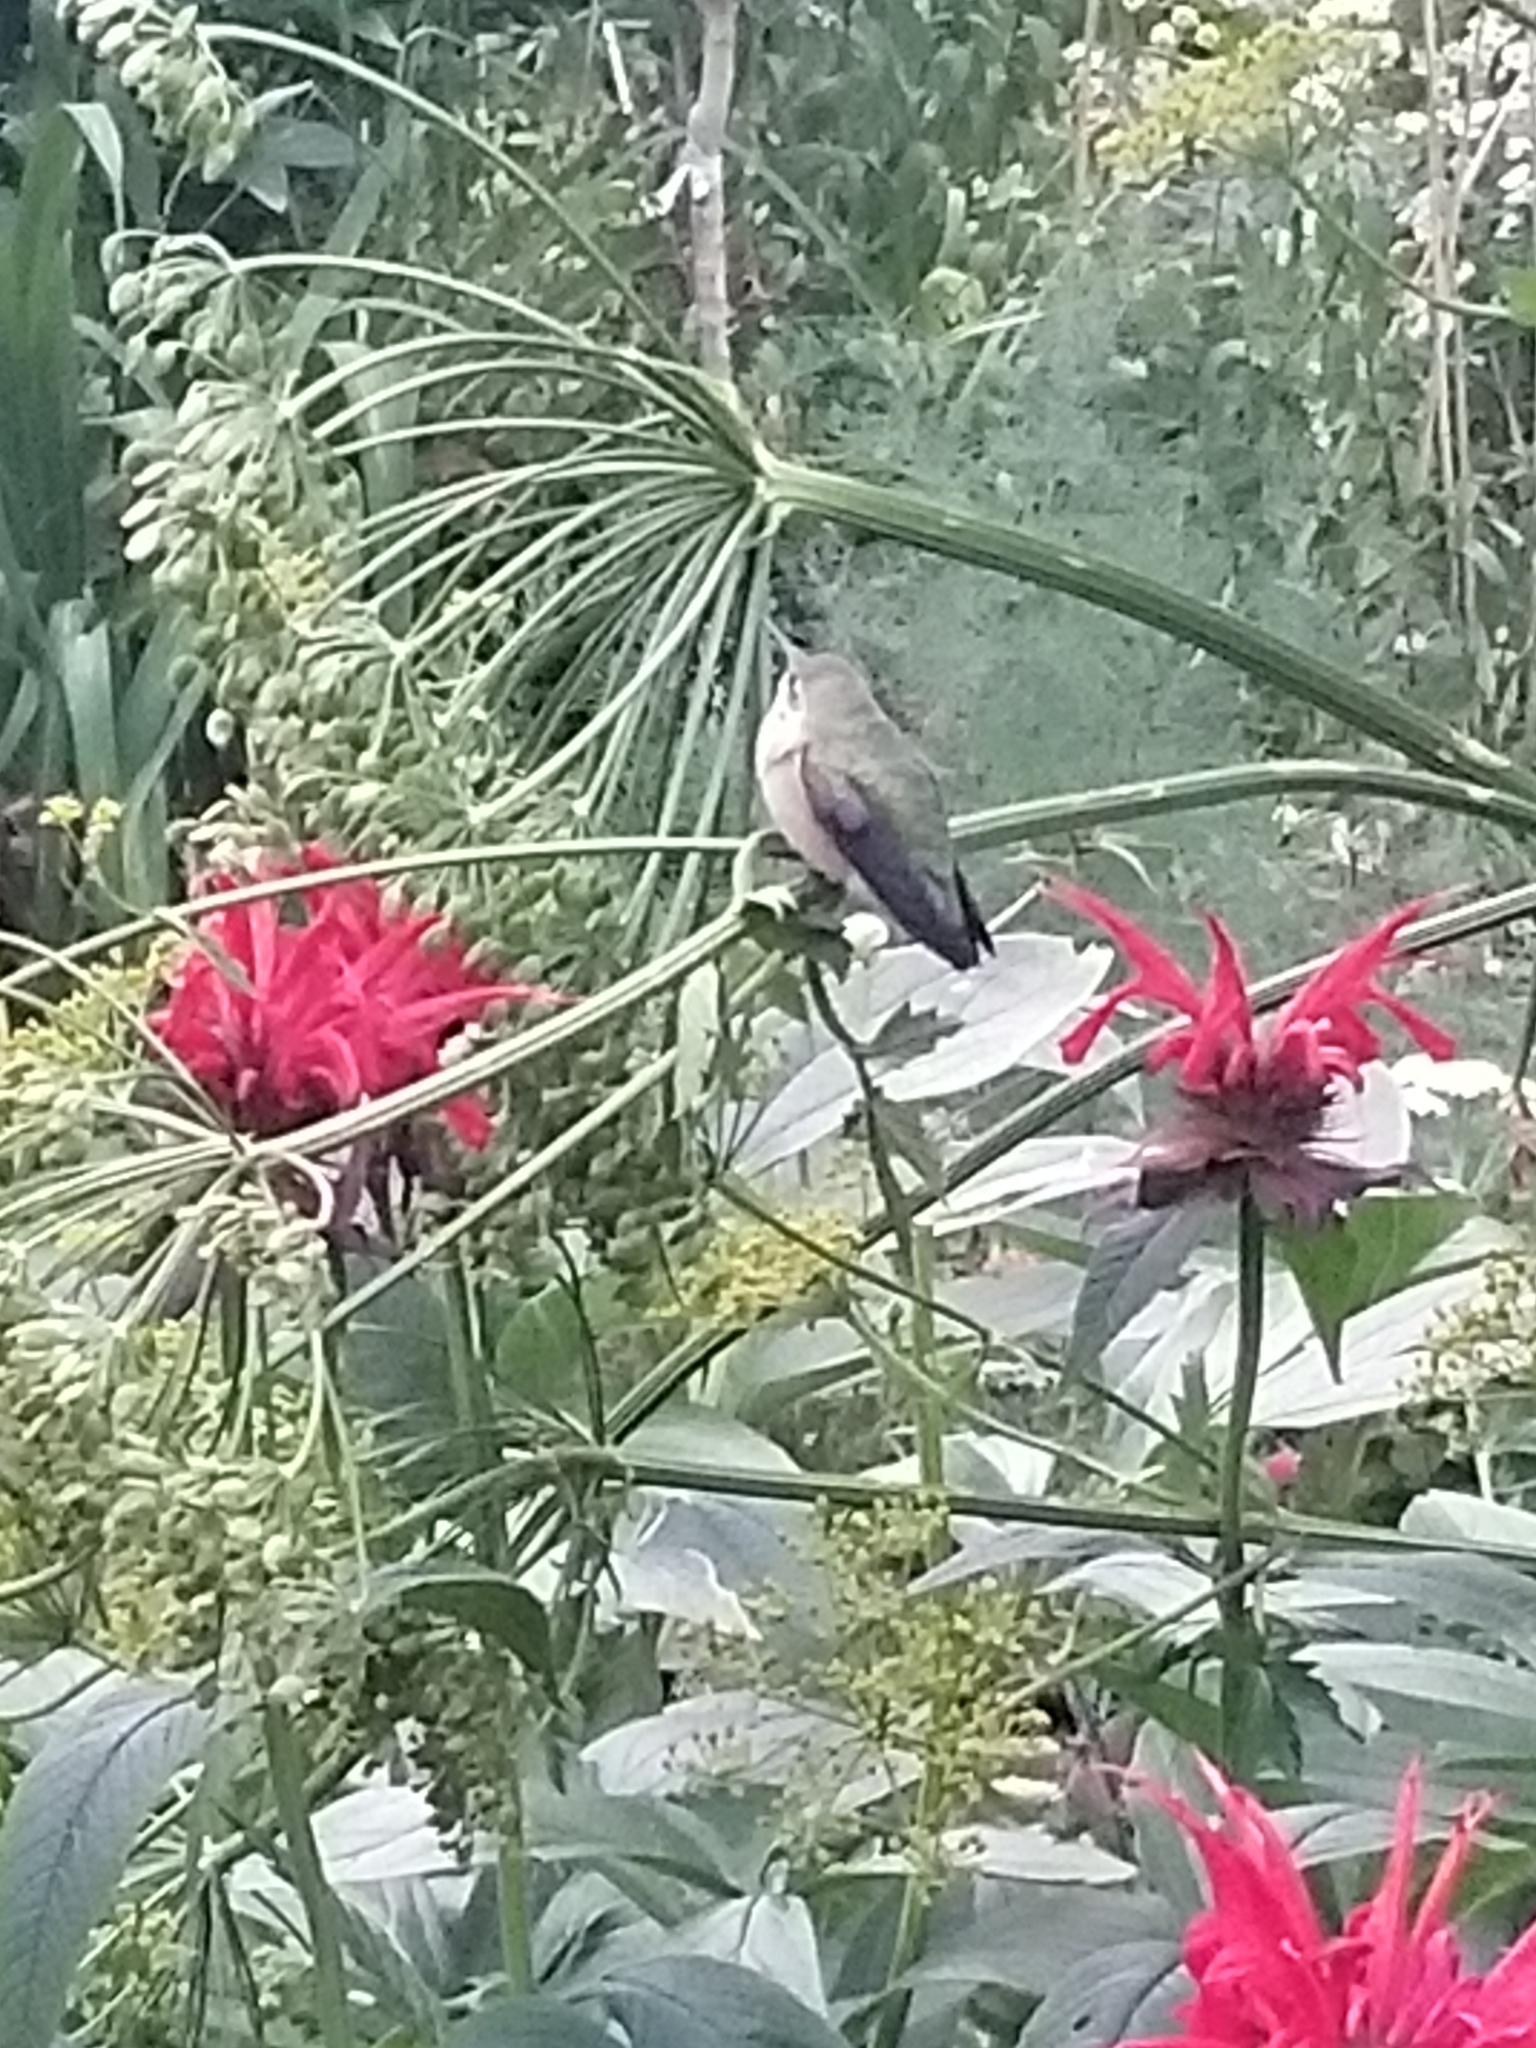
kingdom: Animalia
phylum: Chordata
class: Aves
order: Apodiformes
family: Trochilidae
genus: Selasphorus
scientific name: Selasphorus calliope
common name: Calliope hummingbird
